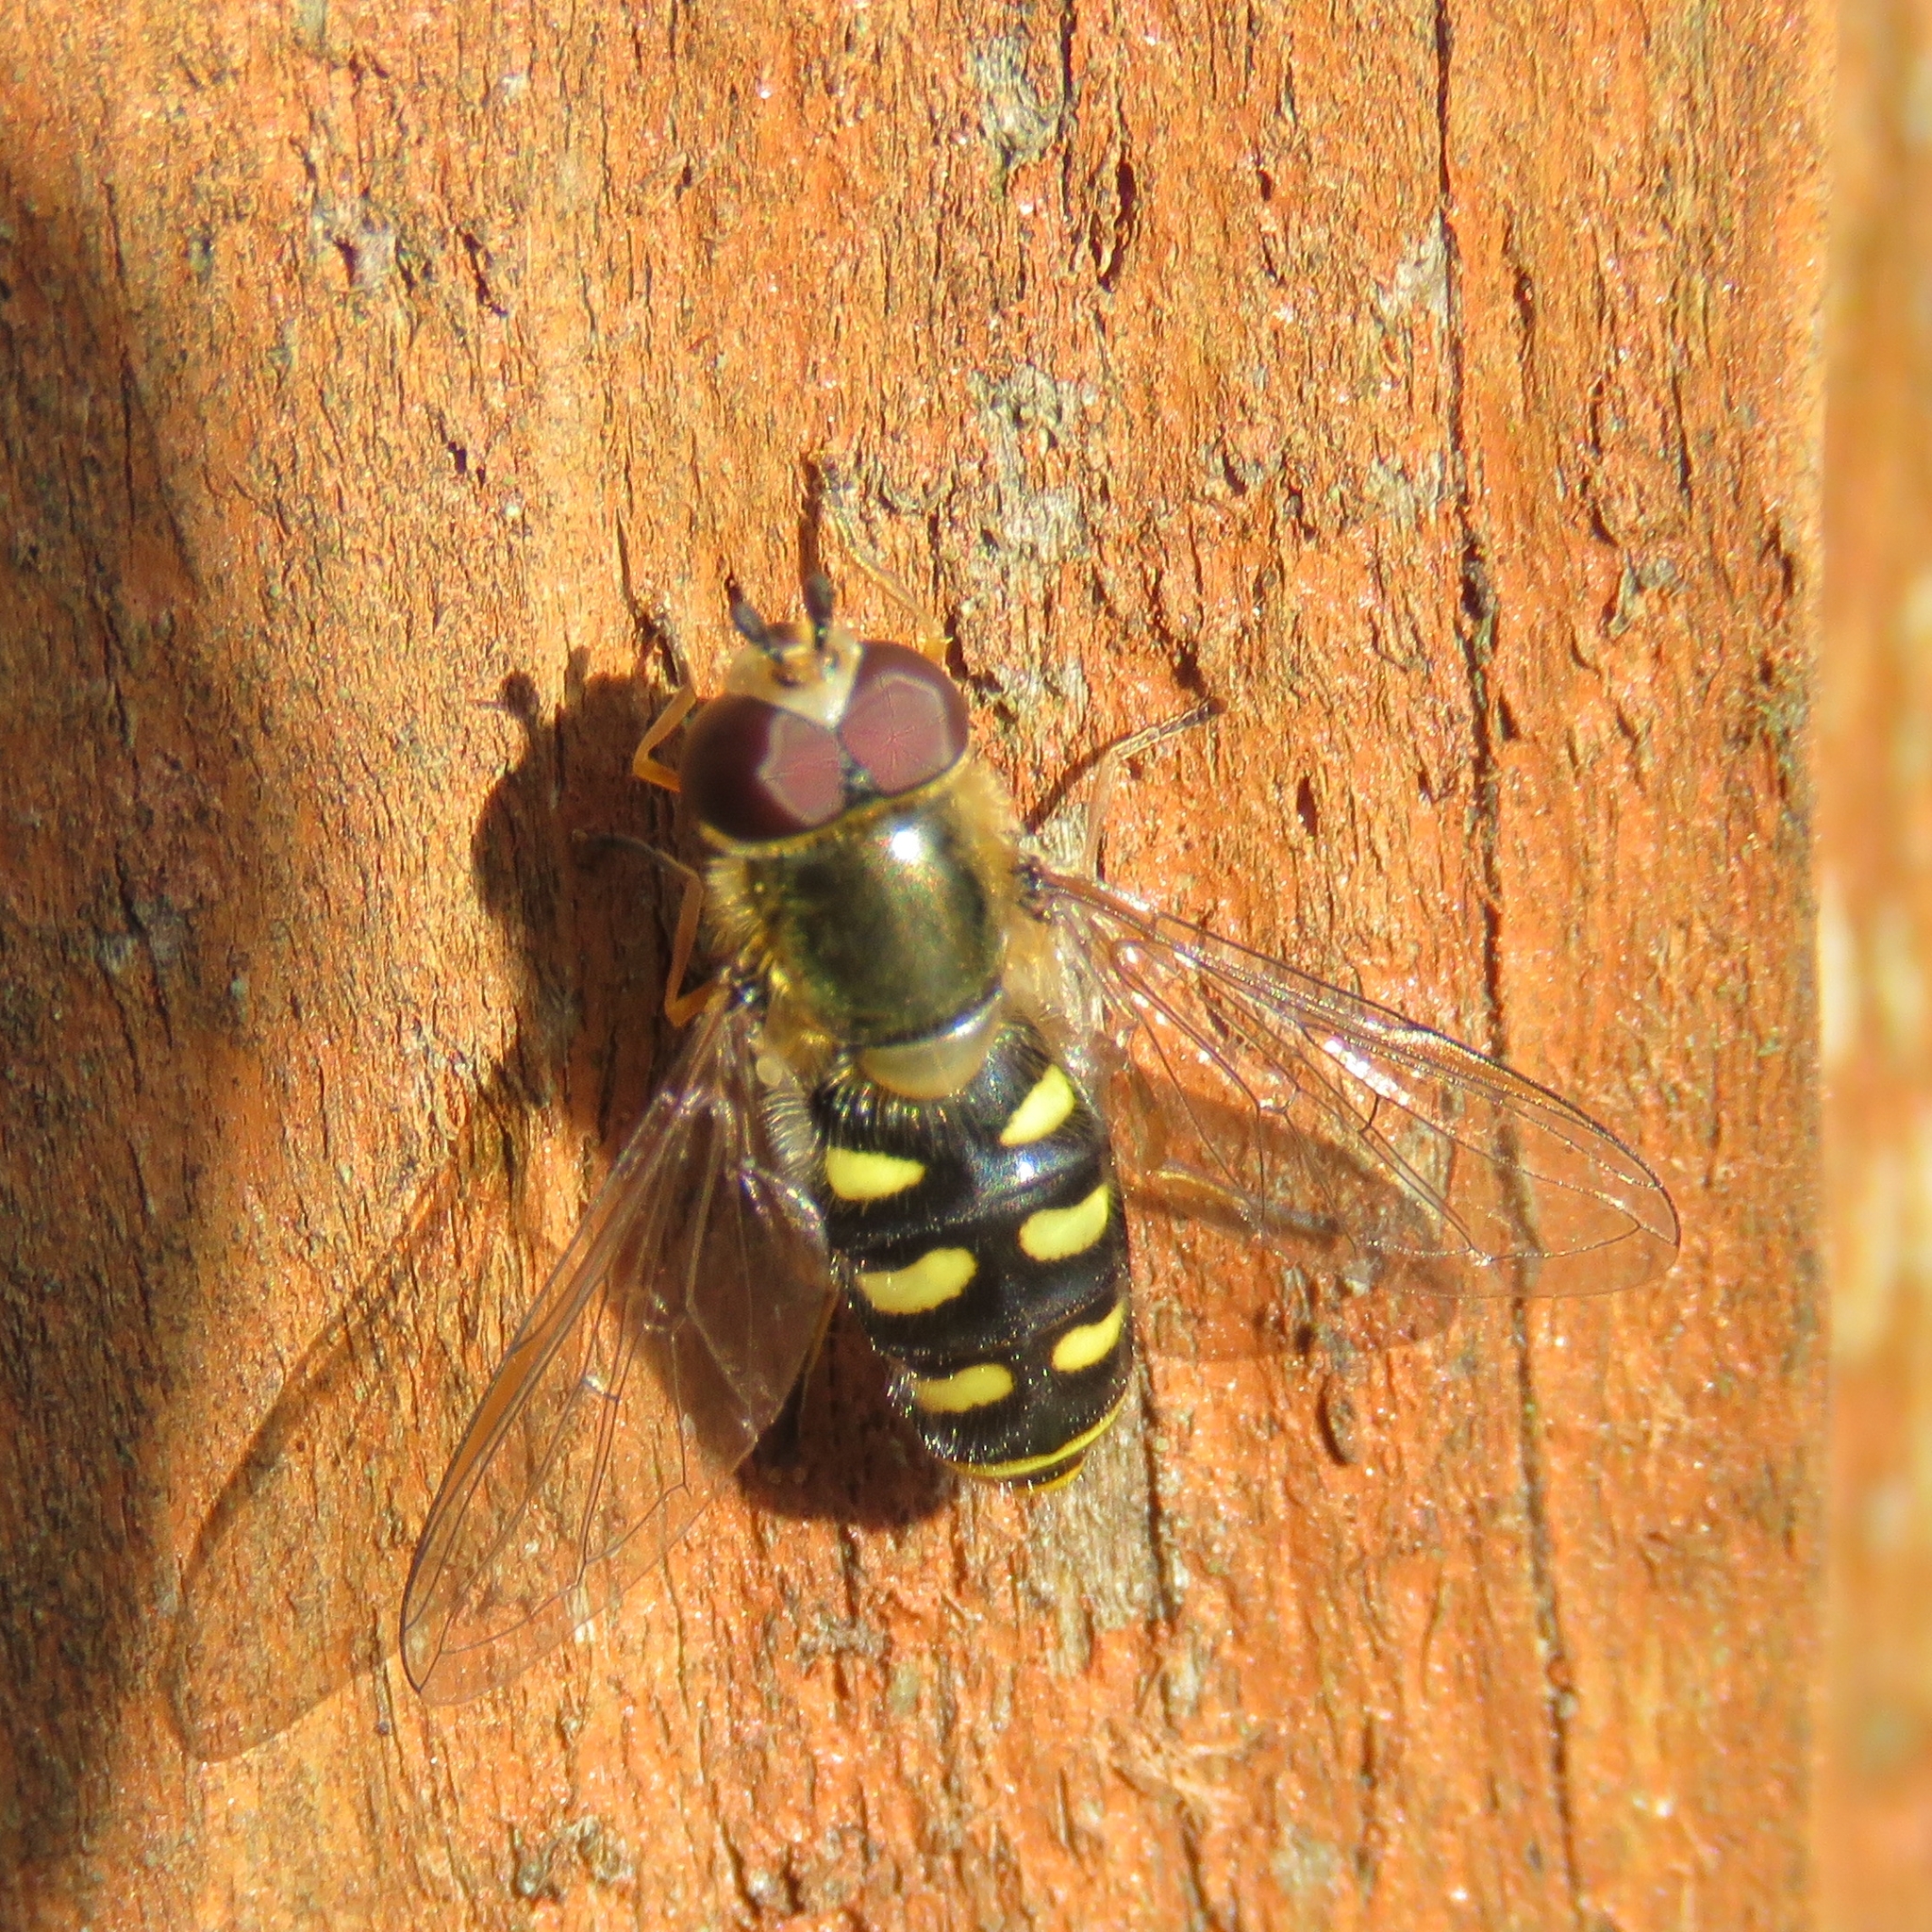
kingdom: Animalia
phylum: Arthropoda
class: Insecta
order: Diptera
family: Syrphidae
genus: Eupeodes
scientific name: Eupeodes
